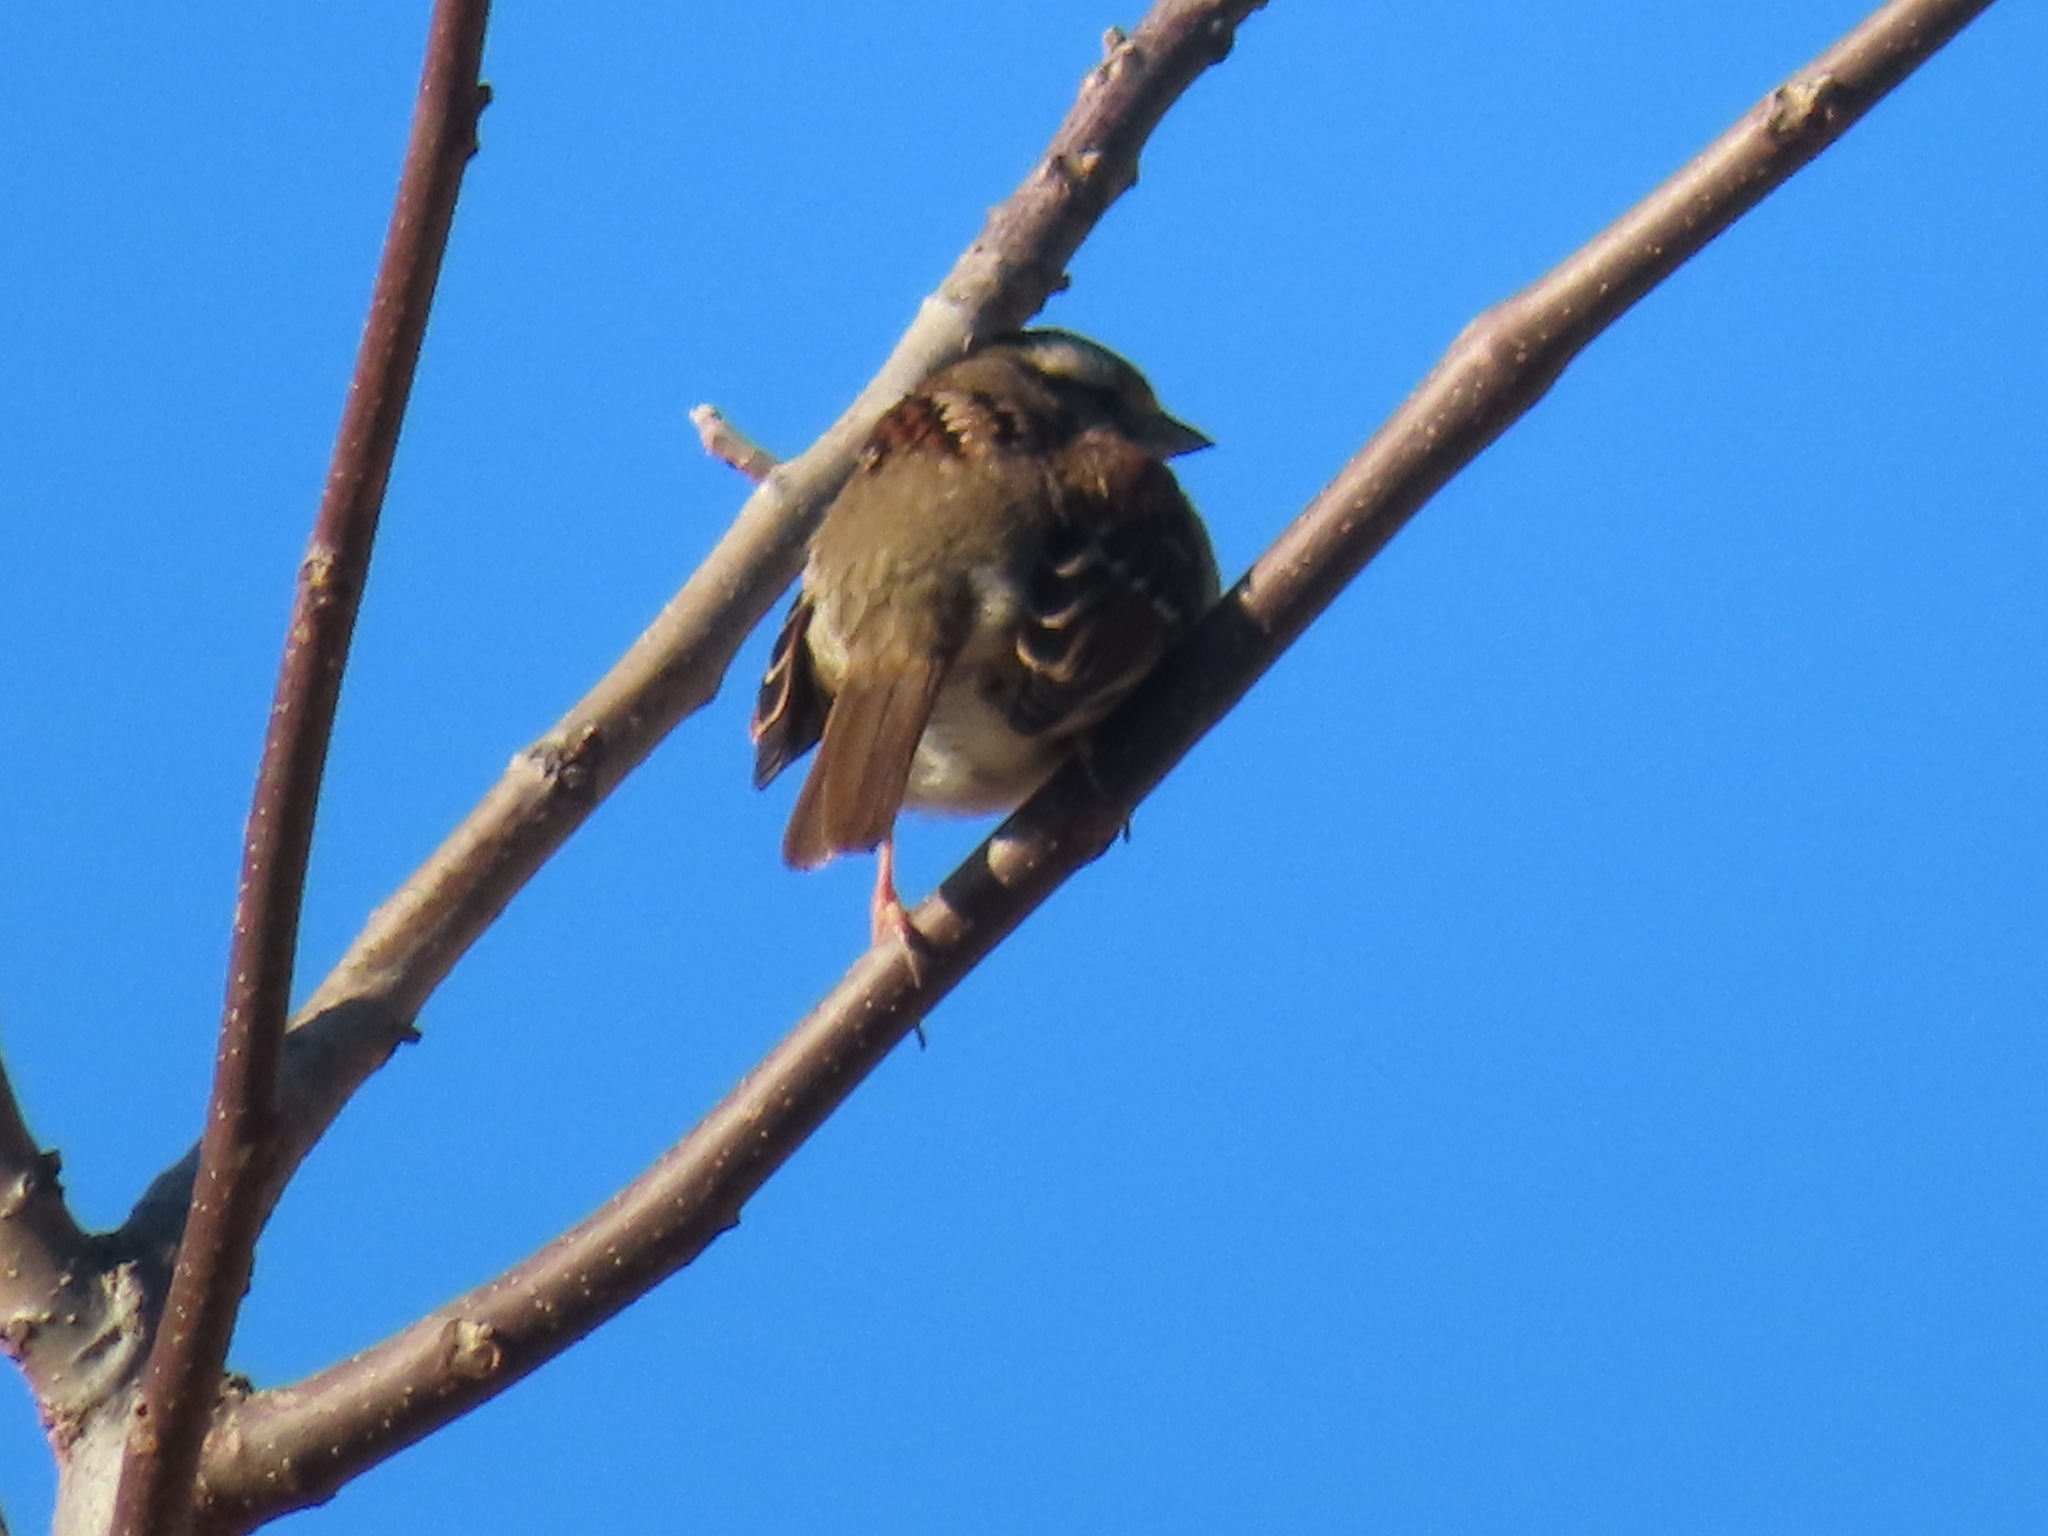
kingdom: Animalia
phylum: Chordata
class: Aves
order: Passeriformes
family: Passerellidae
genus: Zonotrichia
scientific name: Zonotrichia albicollis
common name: White-throated sparrow
